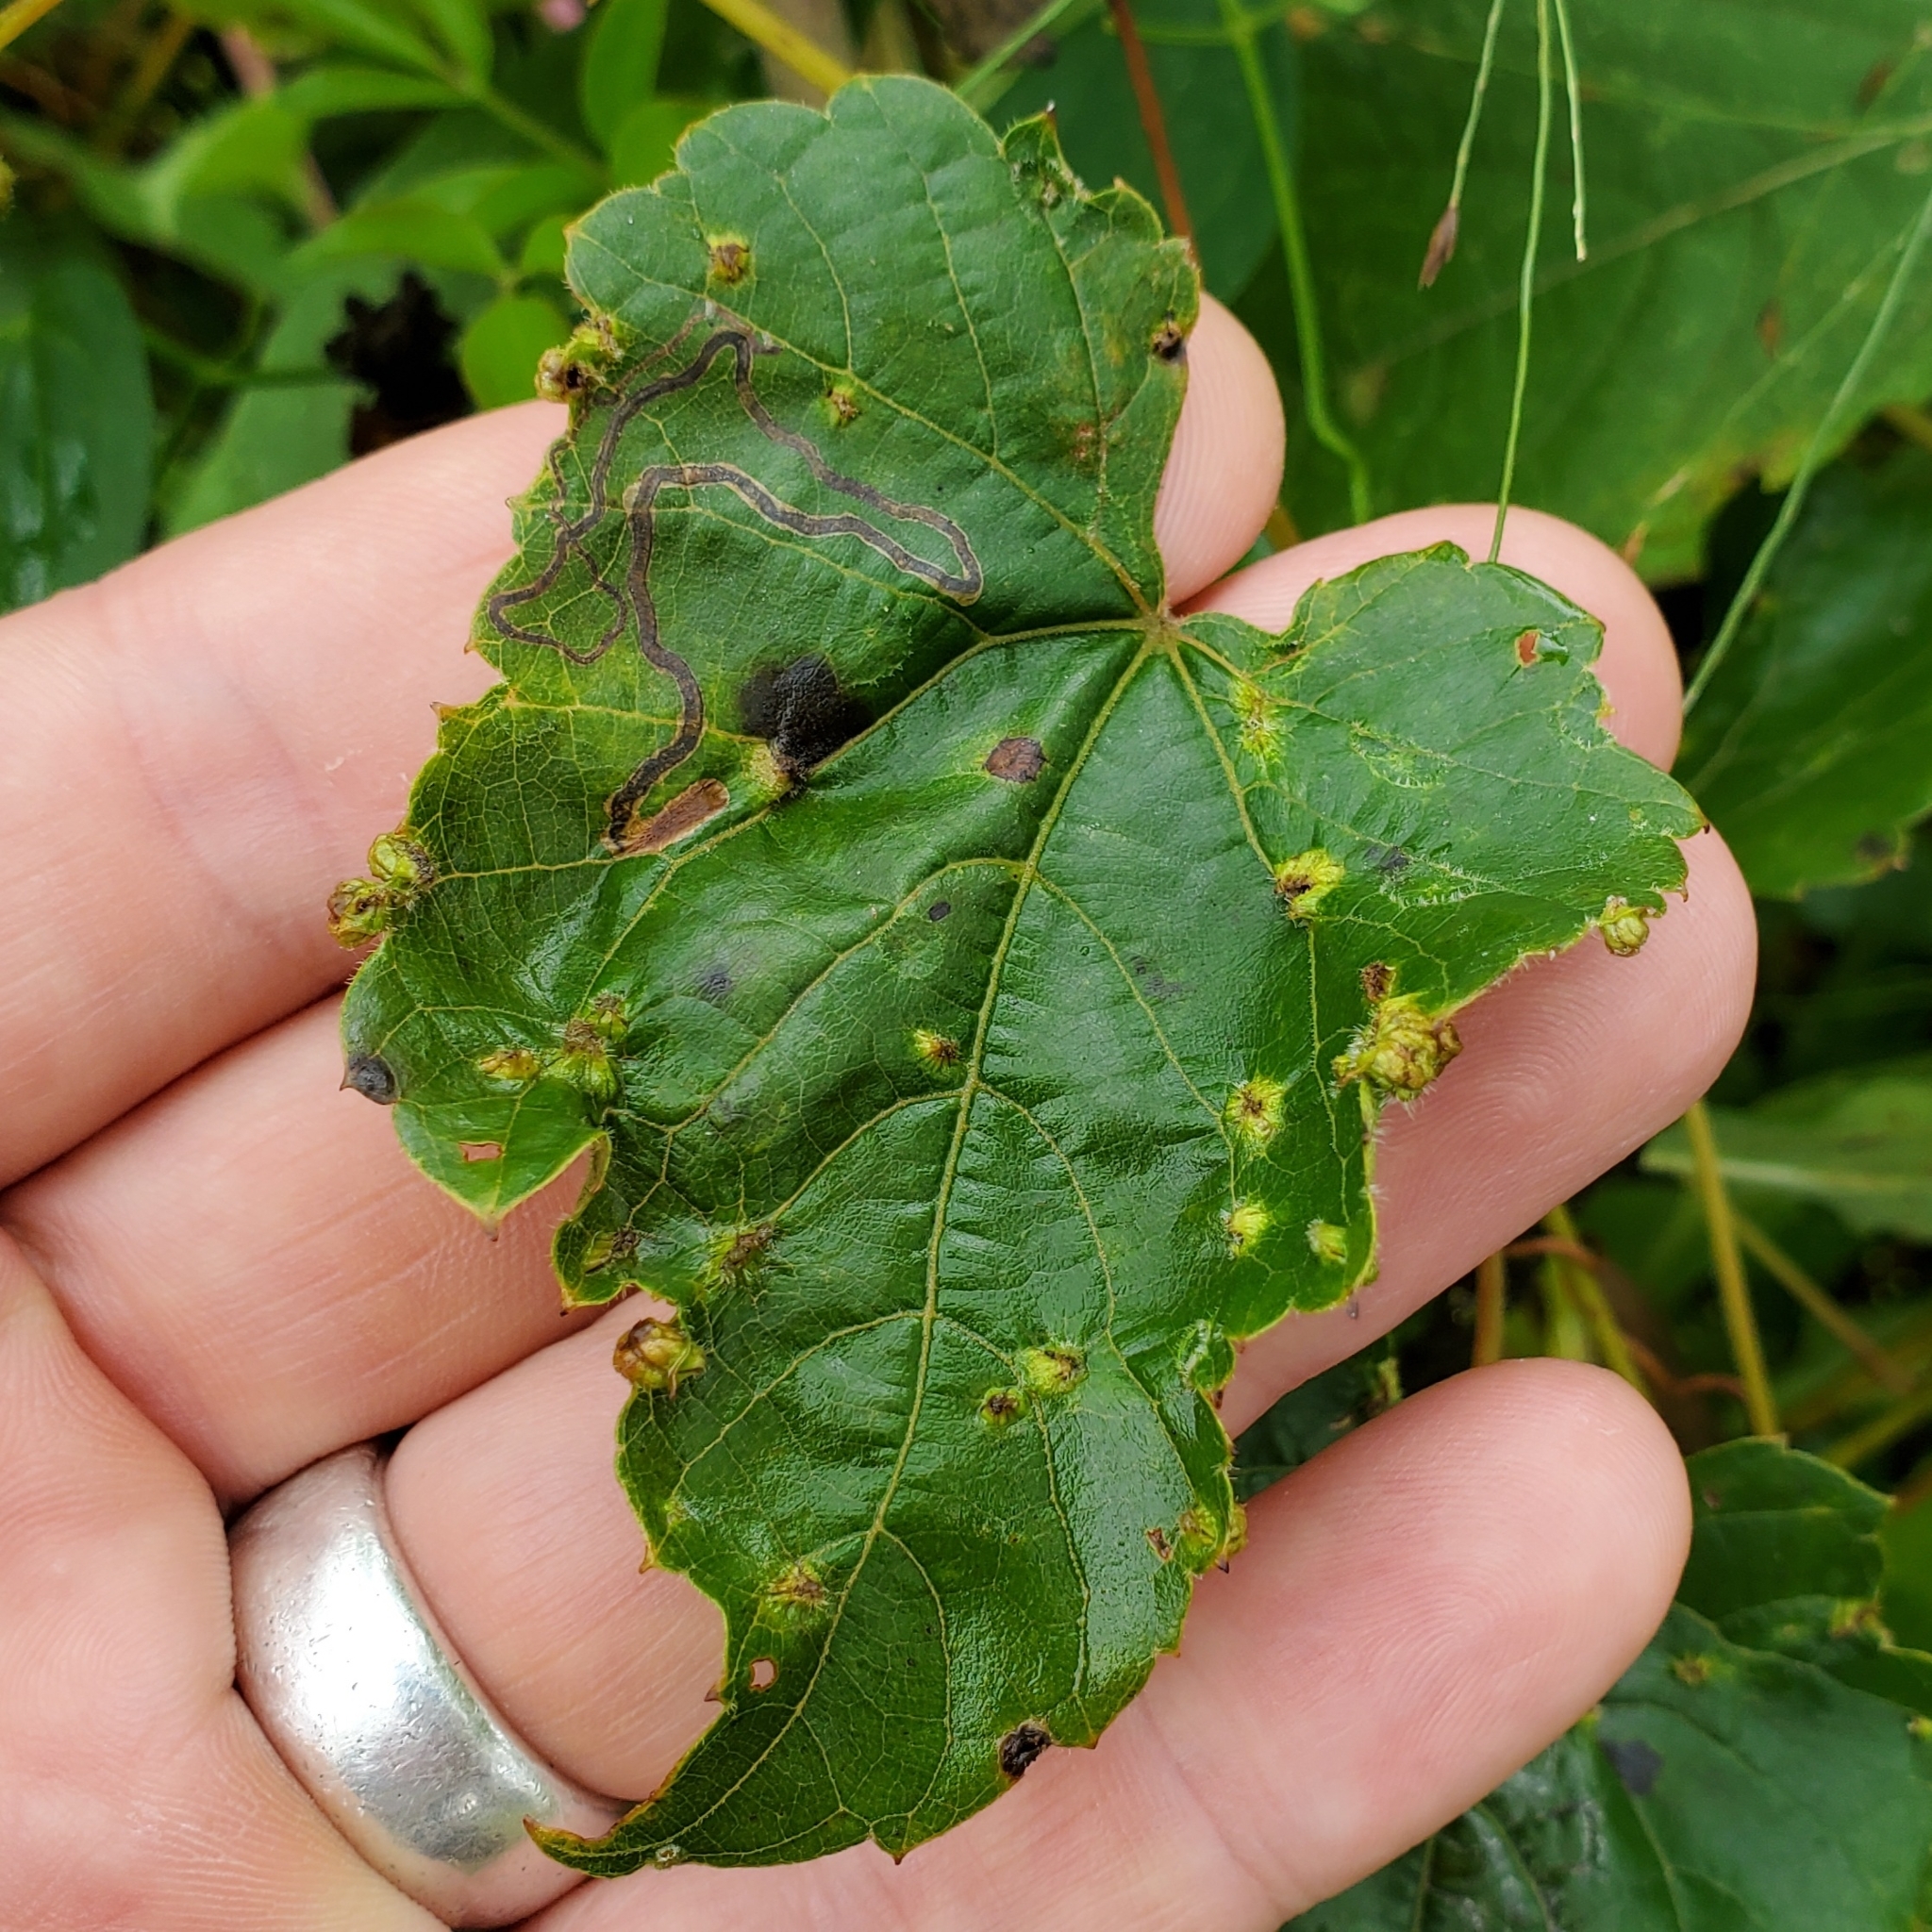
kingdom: Animalia
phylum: Arthropoda
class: Insecta
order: Lepidoptera
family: Gracillariidae
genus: Phyllocnistis
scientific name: Phyllocnistis vitifoliella
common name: Grape leaf-miner moth
